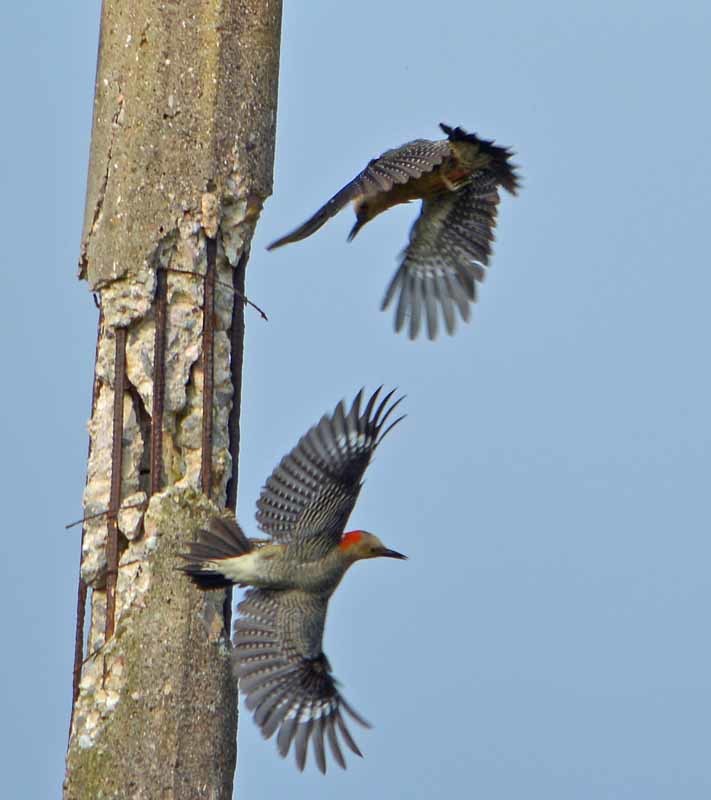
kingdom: Animalia
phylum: Chordata
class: Aves
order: Piciformes
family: Picidae
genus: Melanerpes
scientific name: Melanerpes aurifrons
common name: Golden-fronted woodpecker
